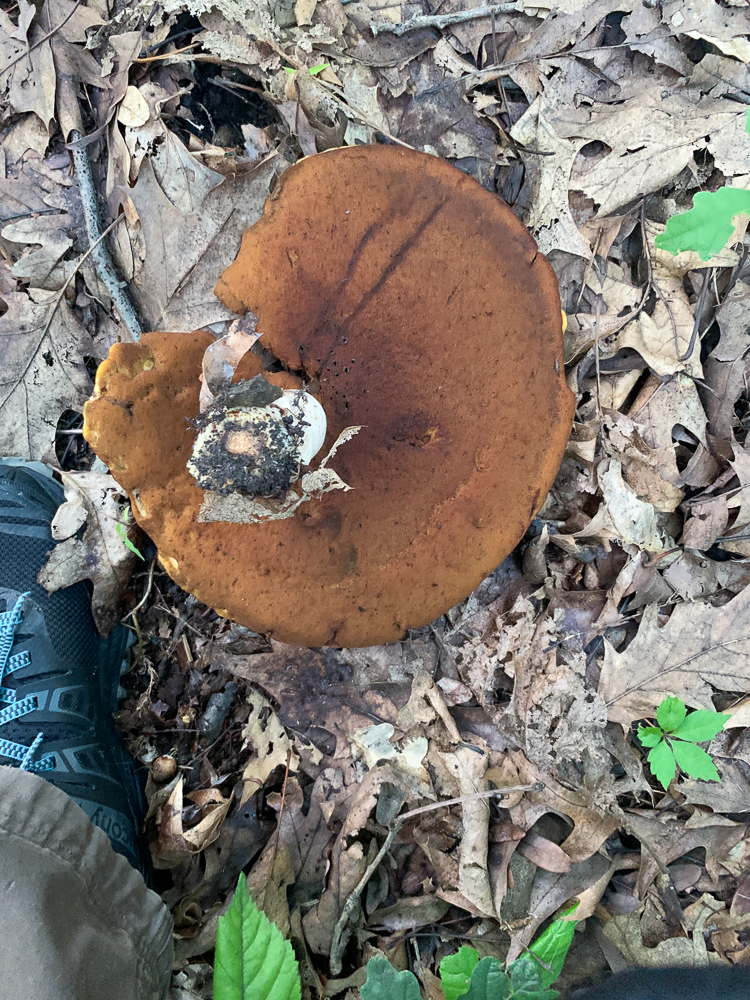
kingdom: Fungi
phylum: Basidiomycota
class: Agaricomycetes
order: Boletales
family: Boletaceae
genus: Boletus
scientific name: Boletus subvelutipes
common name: Red-mouth bolete
